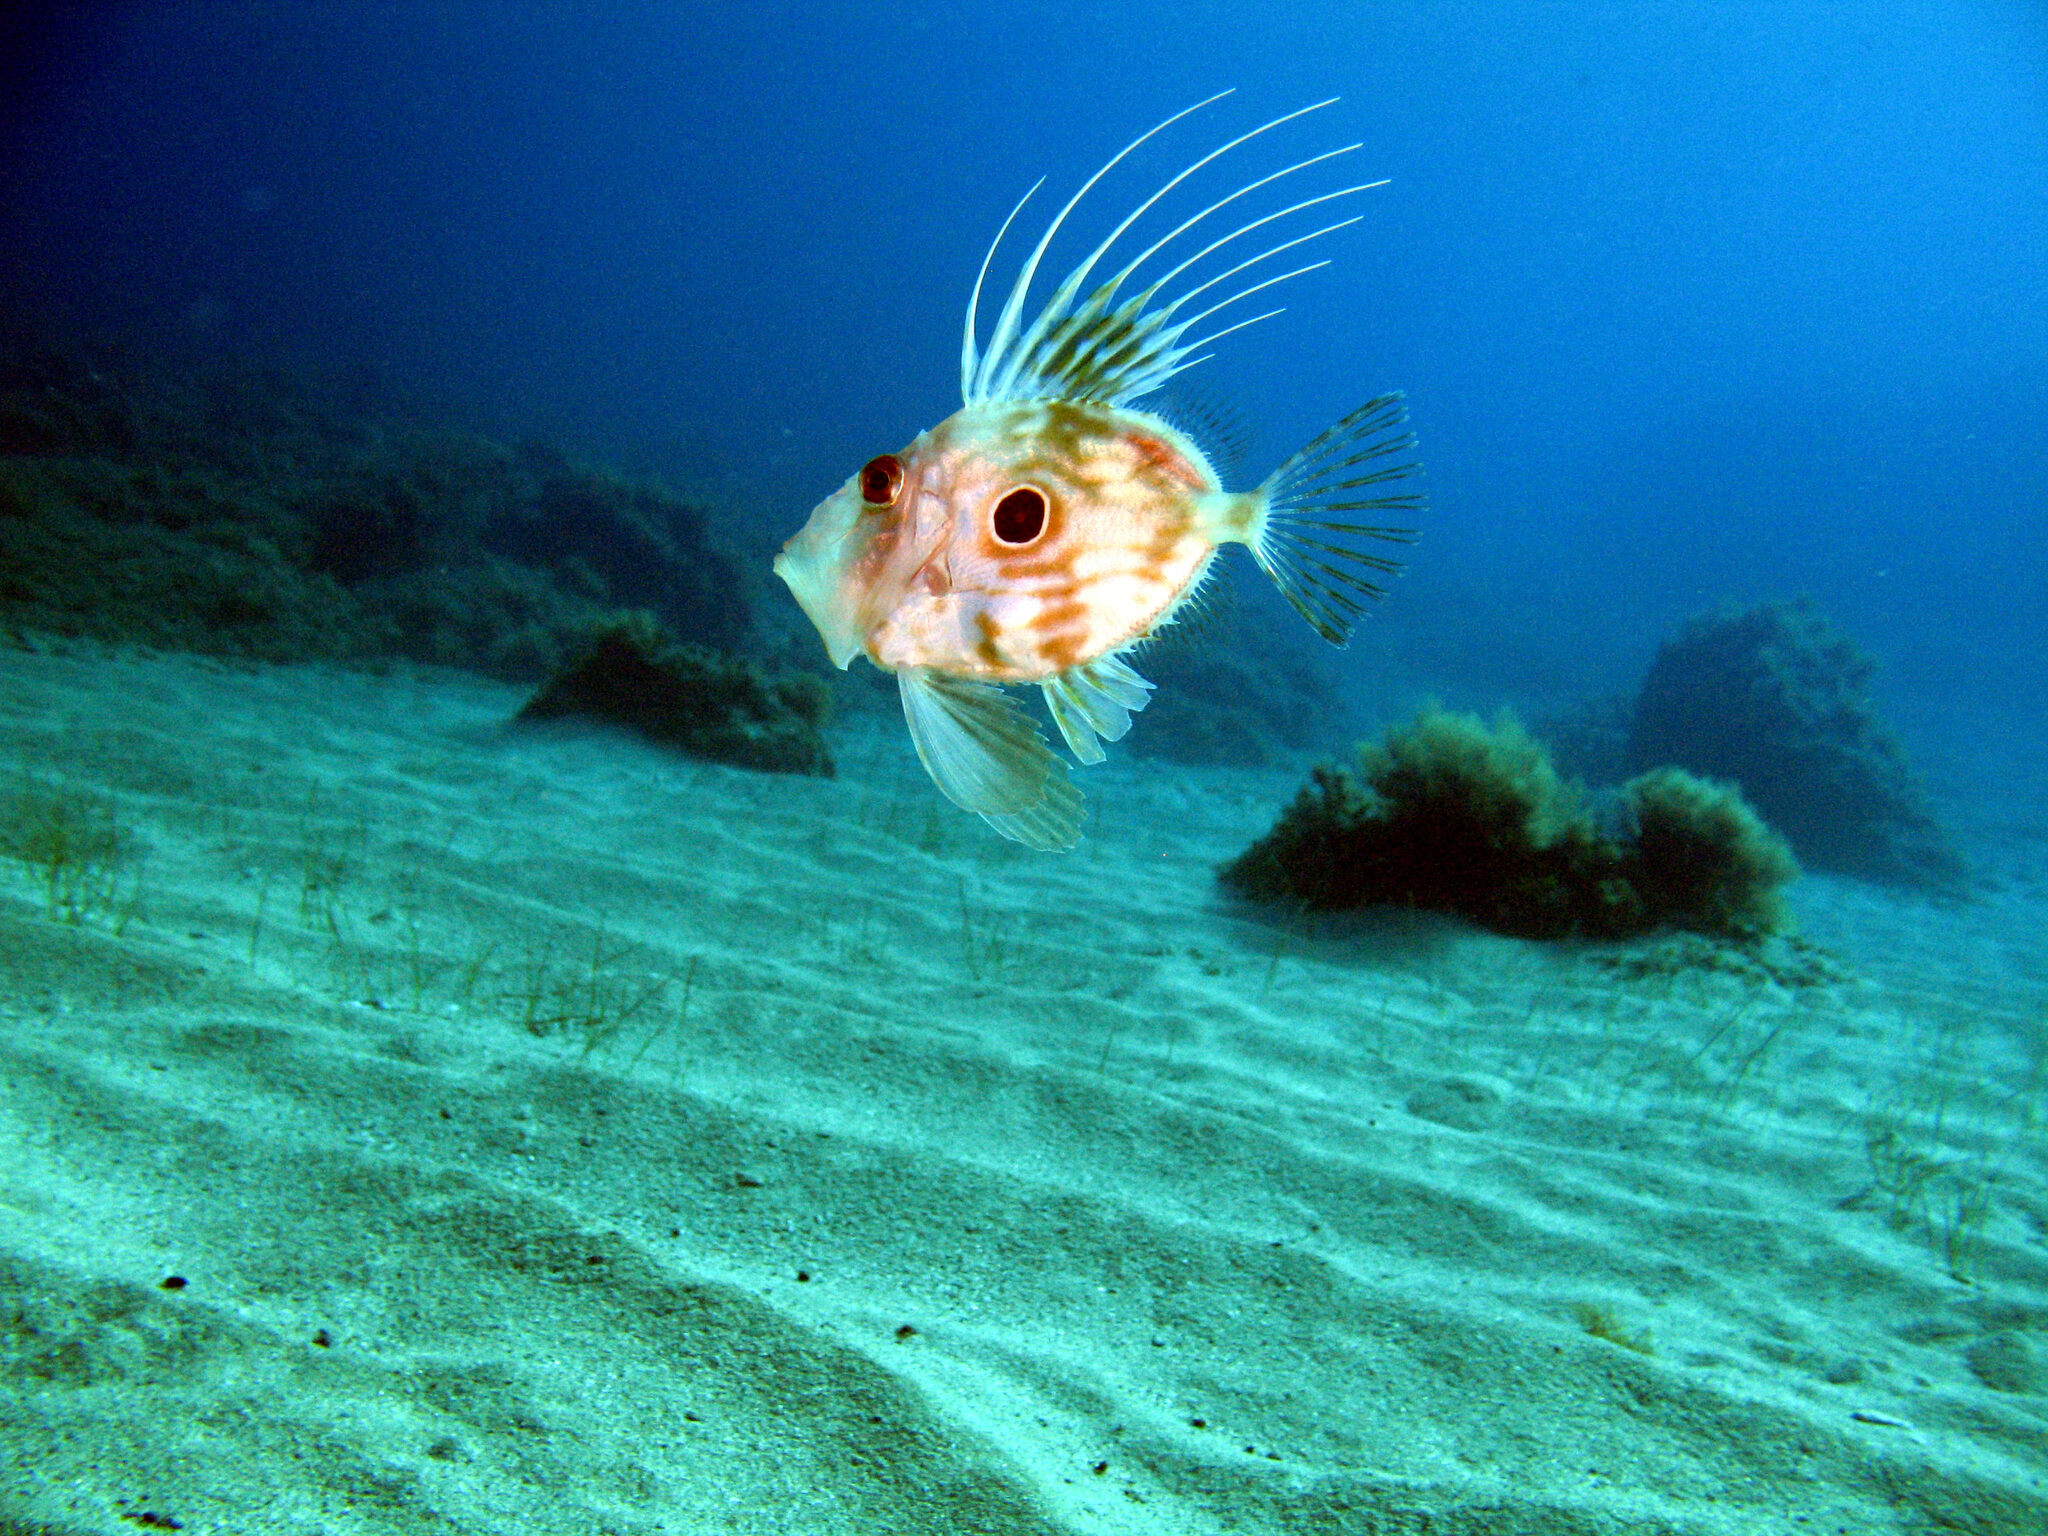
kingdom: Animalia
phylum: Chordata
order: Zeiformes
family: Zeidae
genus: Zeus
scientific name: Zeus faber
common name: John dory
